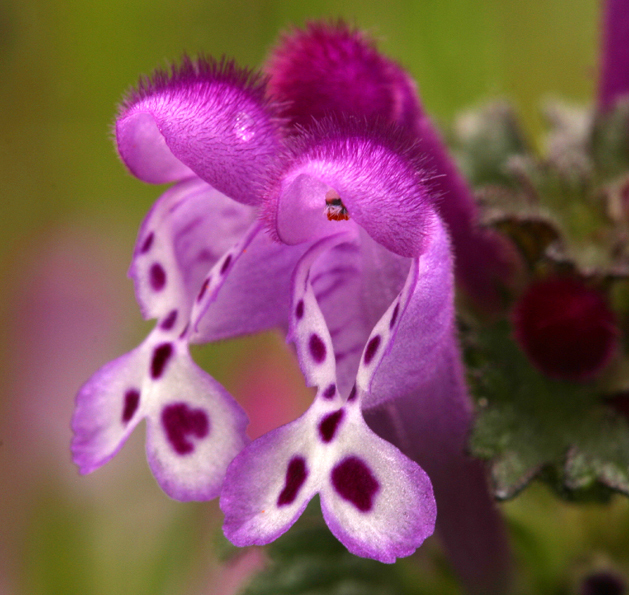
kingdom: Plantae
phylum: Tracheophyta
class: Magnoliopsida
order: Lamiales
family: Lamiaceae
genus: Lamium
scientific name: Lamium amplexicaule
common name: Henbit dead-nettle
